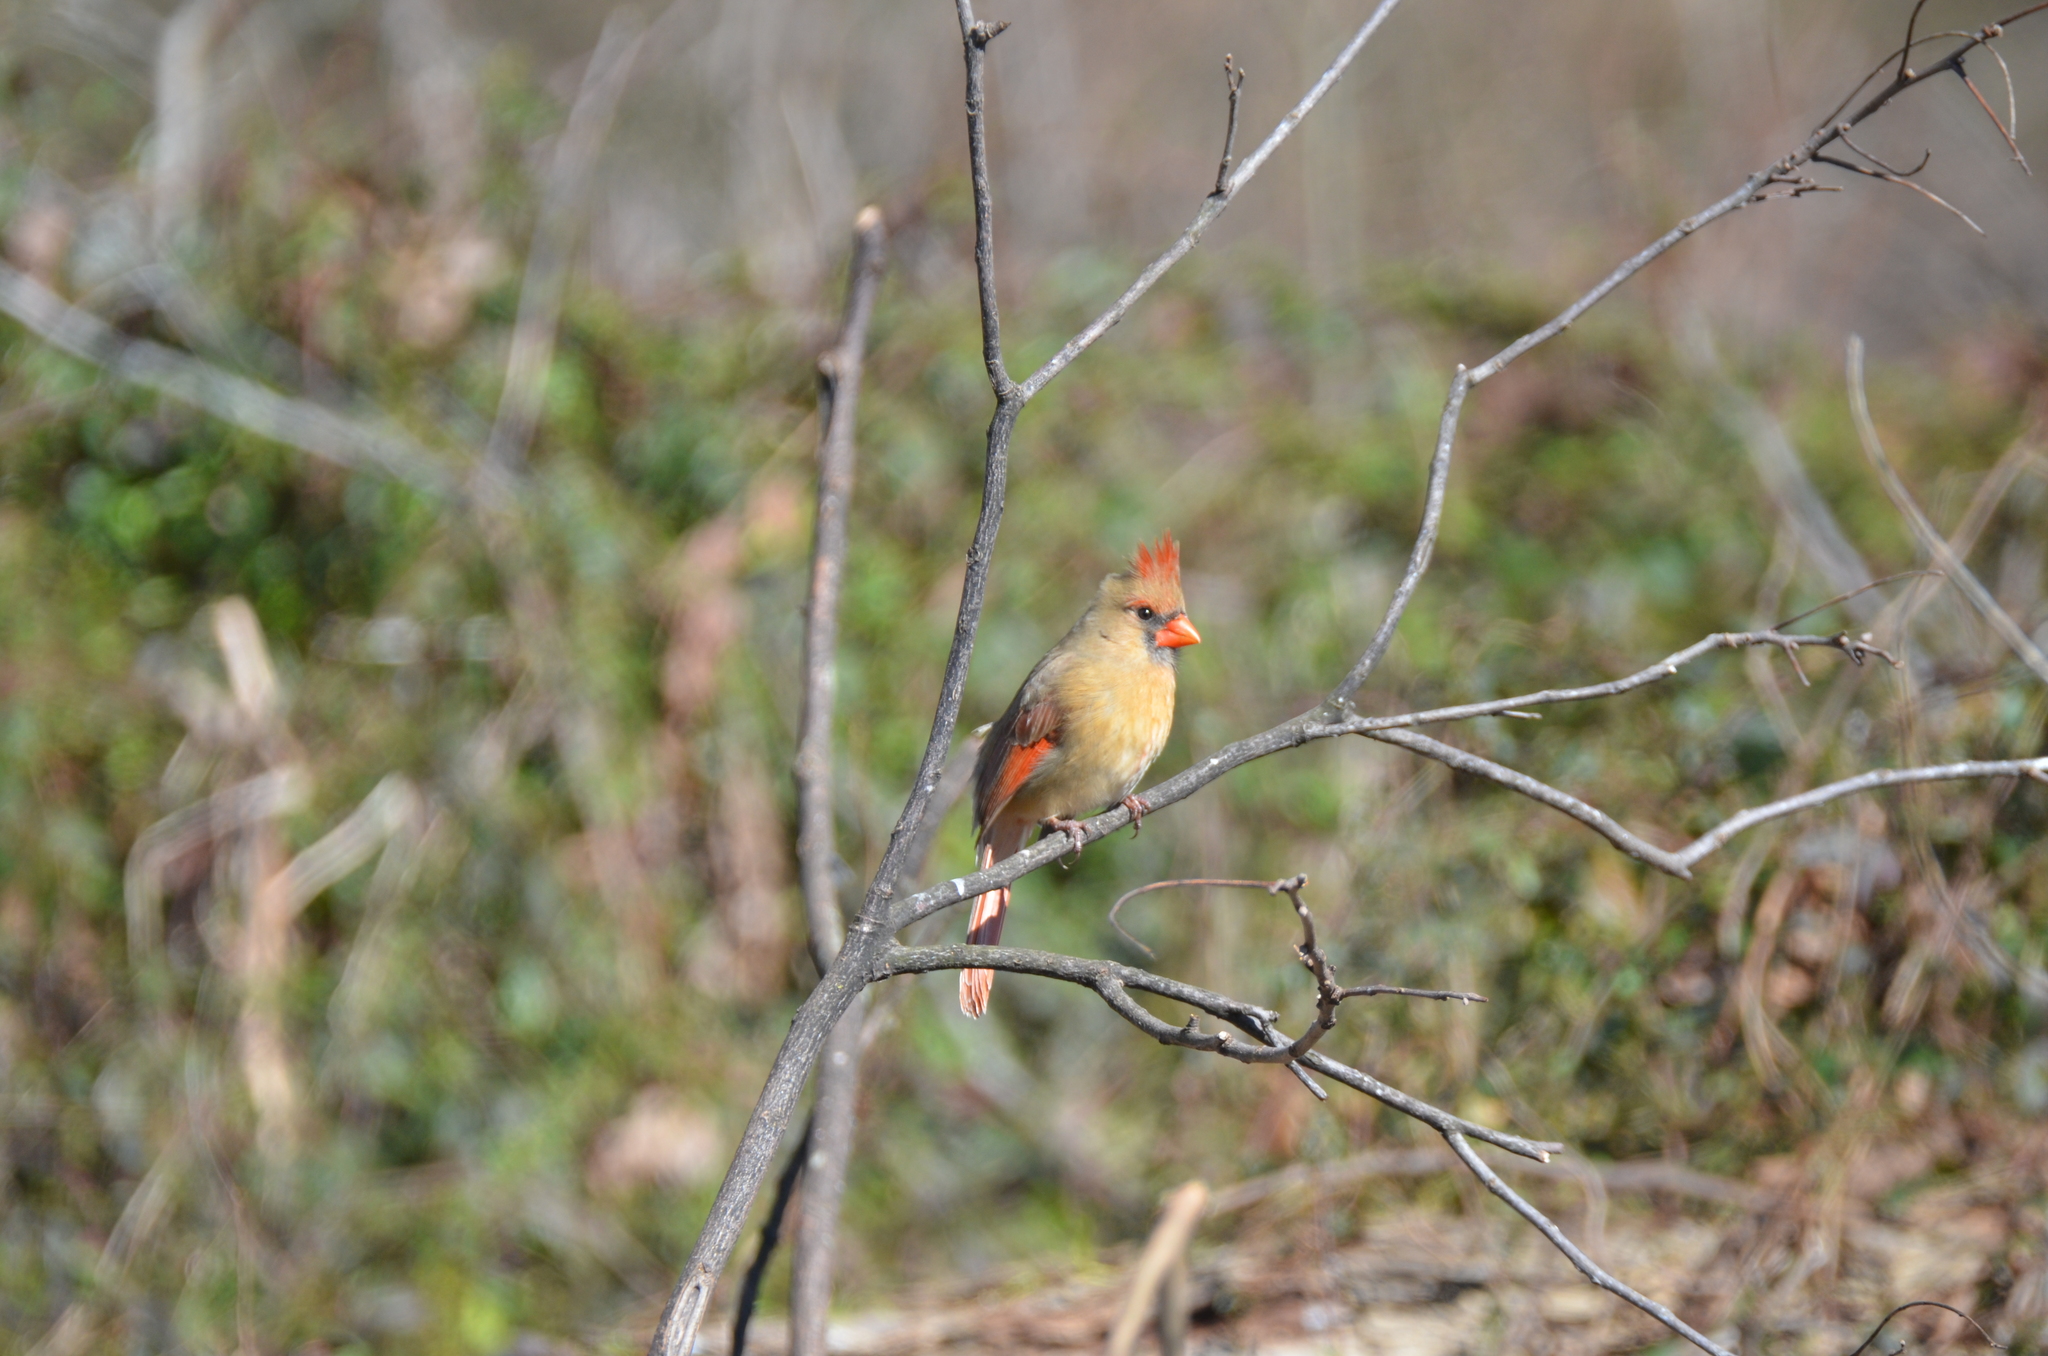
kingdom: Animalia
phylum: Chordata
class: Aves
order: Passeriformes
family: Cardinalidae
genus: Cardinalis
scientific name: Cardinalis cardinalis
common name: Northern cardinal
